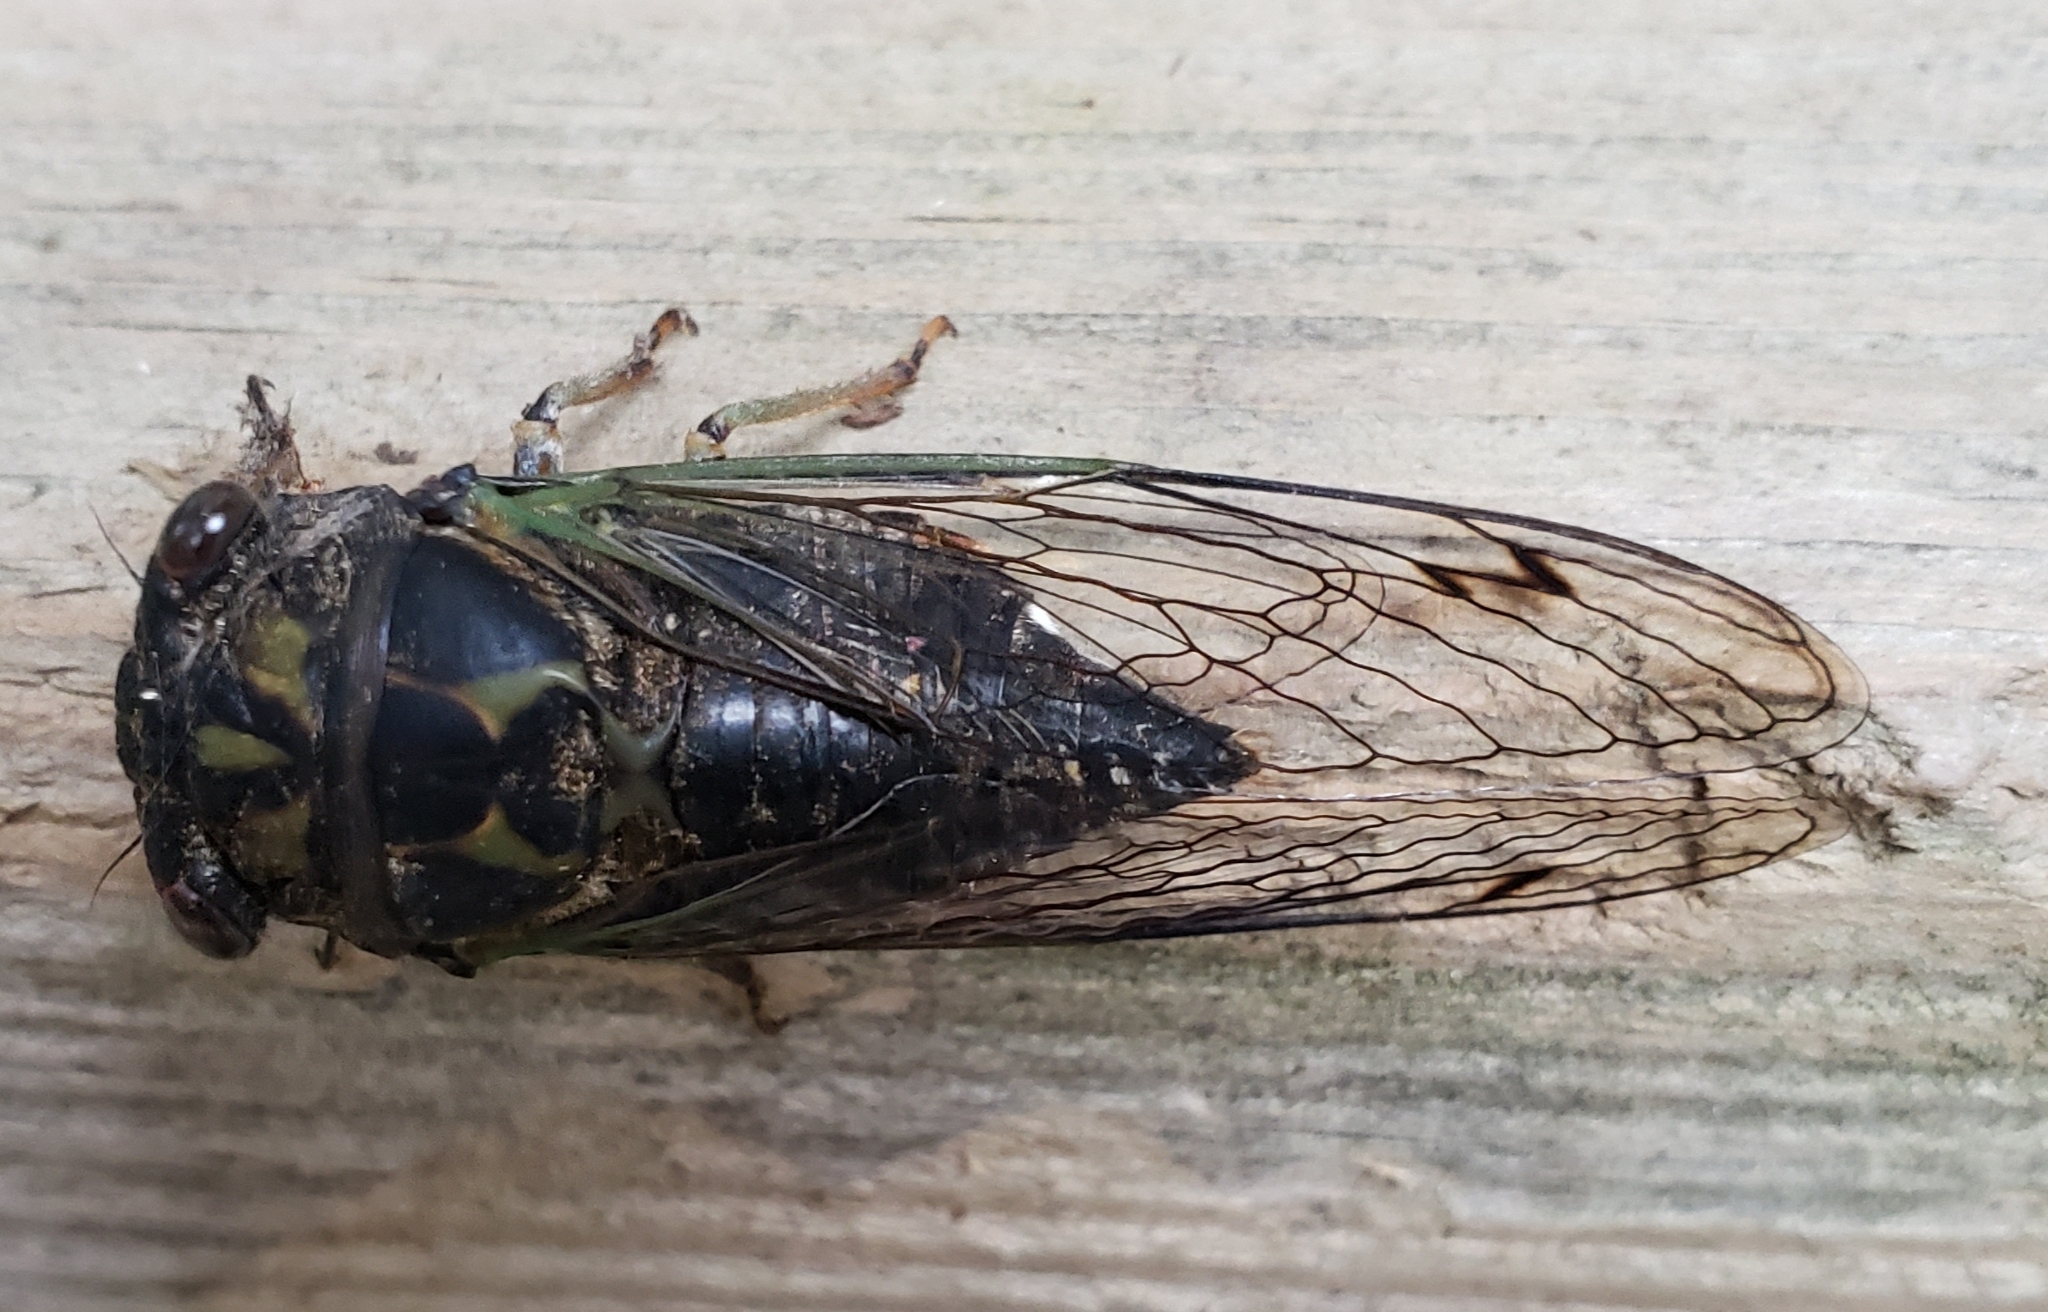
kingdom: Animalia
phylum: Arthropoda
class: Insecta
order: Hemiptera
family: Cicadidae
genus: Neotibicen
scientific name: Neotibicen canicularis
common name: God-day cicada
